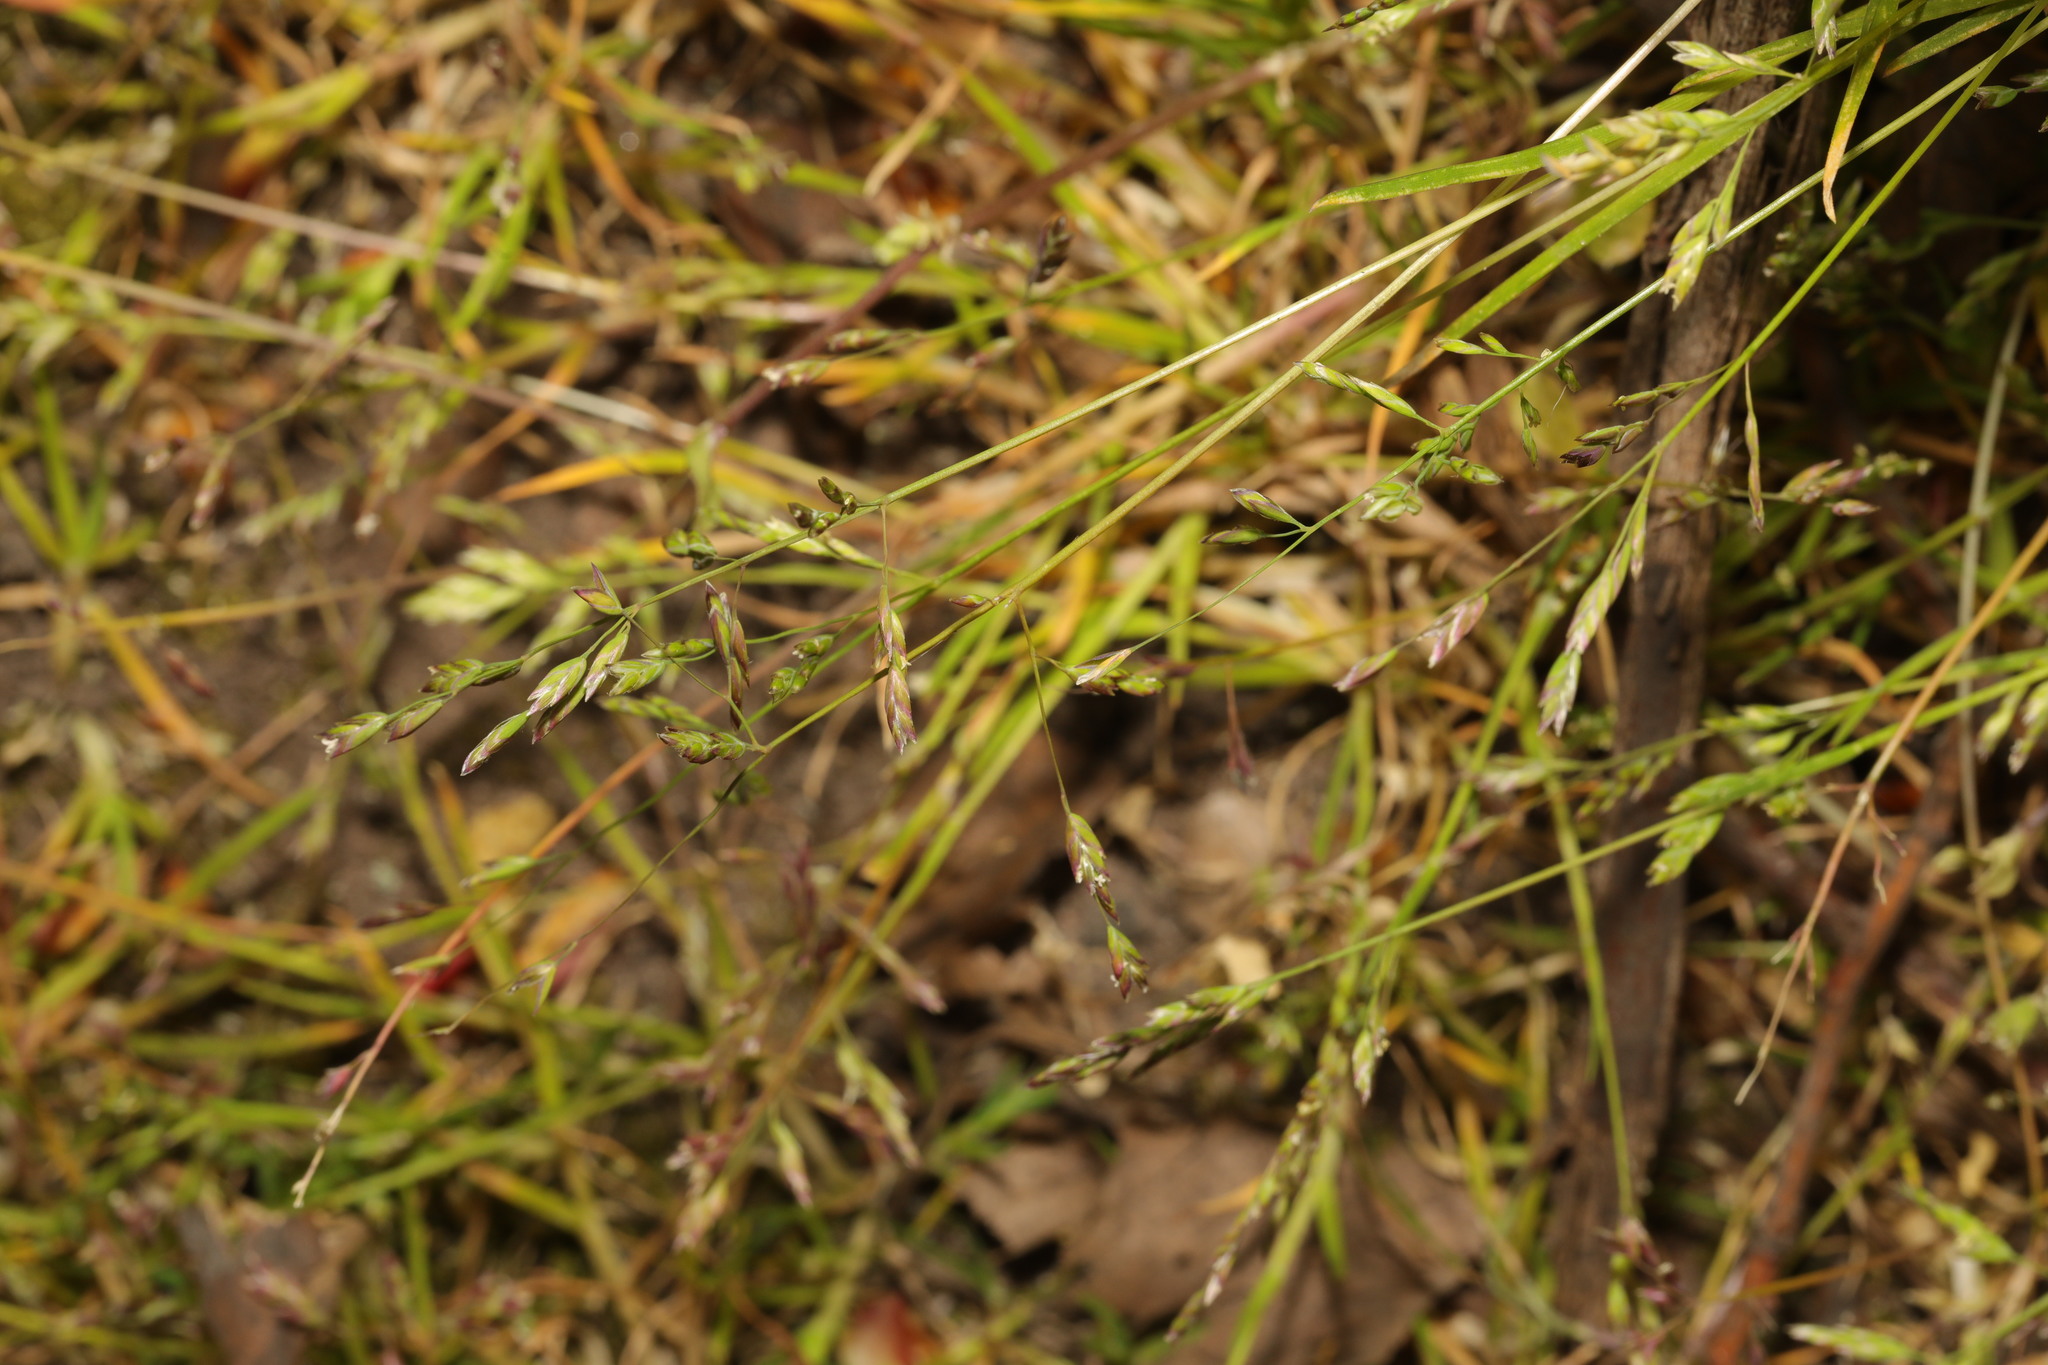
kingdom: Plantae
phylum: Tracheophyta
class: Liliopsida
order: Poales
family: Poaceae
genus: Poa
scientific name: Poa annua
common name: Annual bluegrass
